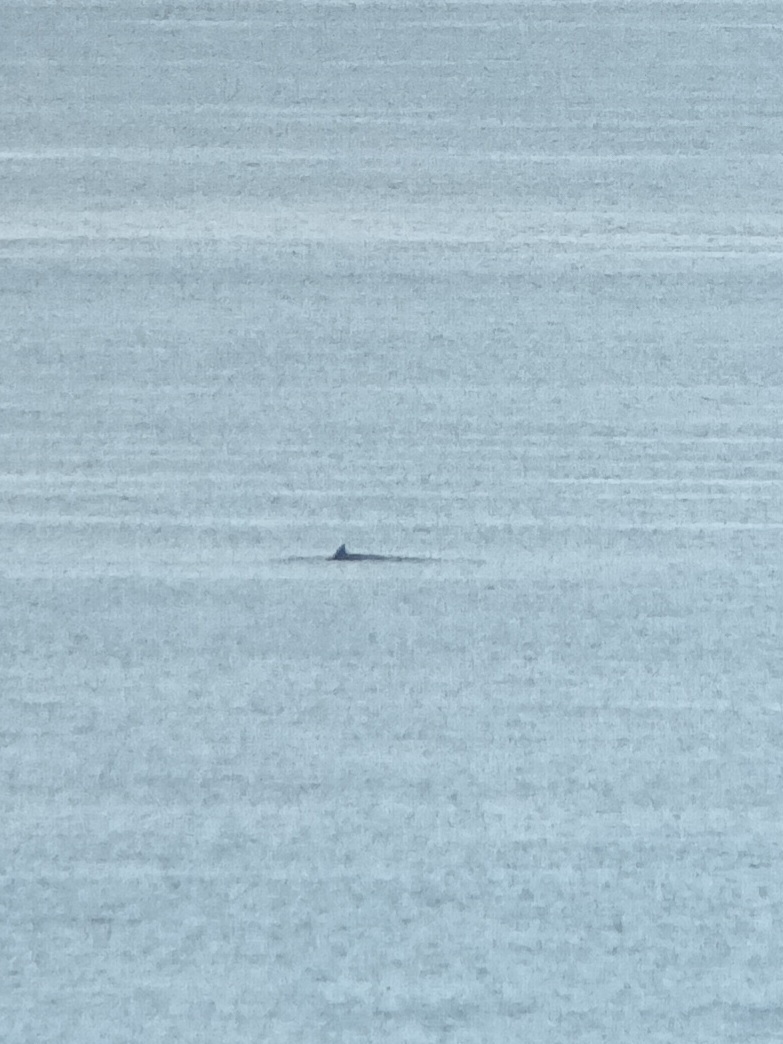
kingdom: Animalia
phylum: Chordata
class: Mammalia
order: Cetacea
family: Balaenopteridae
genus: Balaenoptera
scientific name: Balaenoptera acutorostrata
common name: Common minke whale
